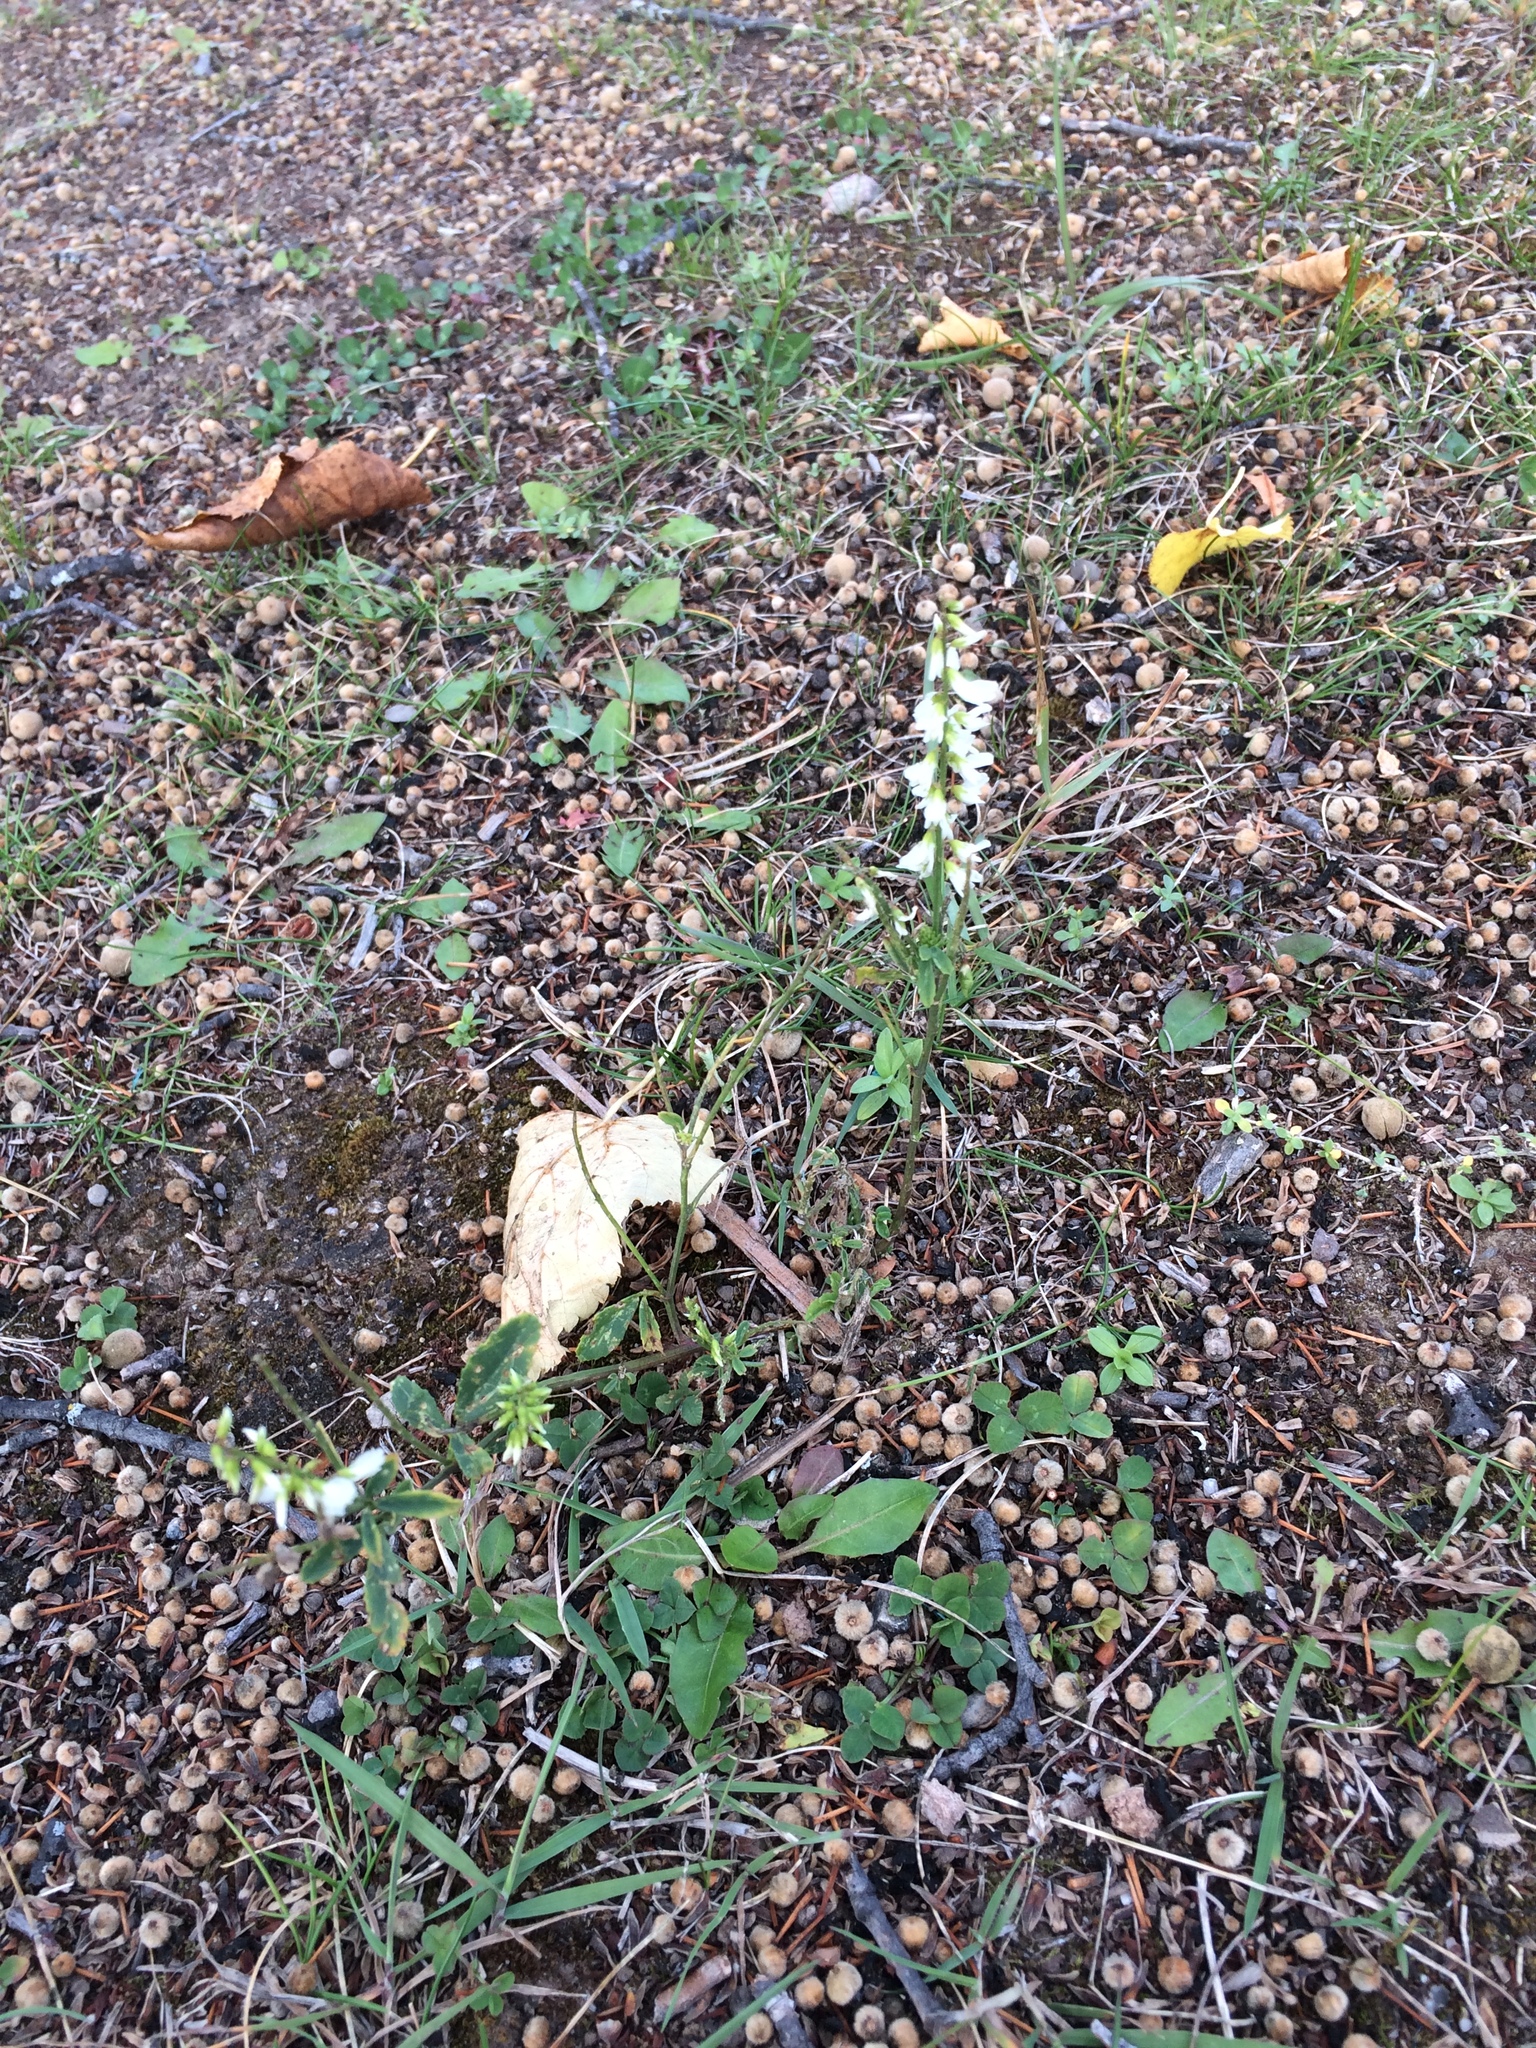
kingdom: Plantae
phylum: Tracheophyta
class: Magnoliopsida
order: Fabales
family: Fabaceae
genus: Melilotus
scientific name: Melilotus albus
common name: White melilot
